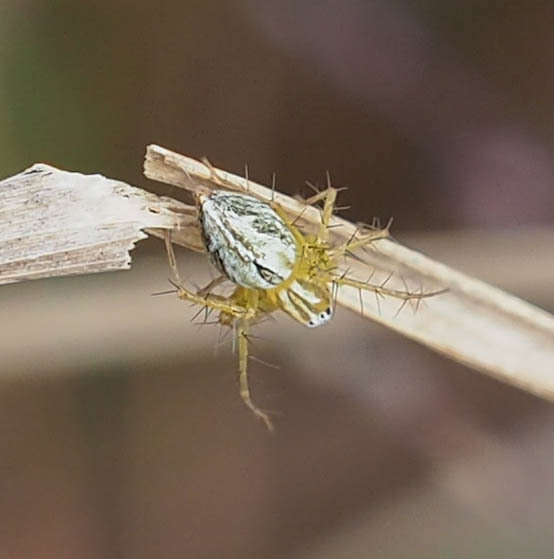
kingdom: Animalia
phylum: Arthropoda
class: Arachnida
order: Araneae
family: Oxyopidae
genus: Oxyopes
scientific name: Oxyopes salticus
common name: Lynx spiders
